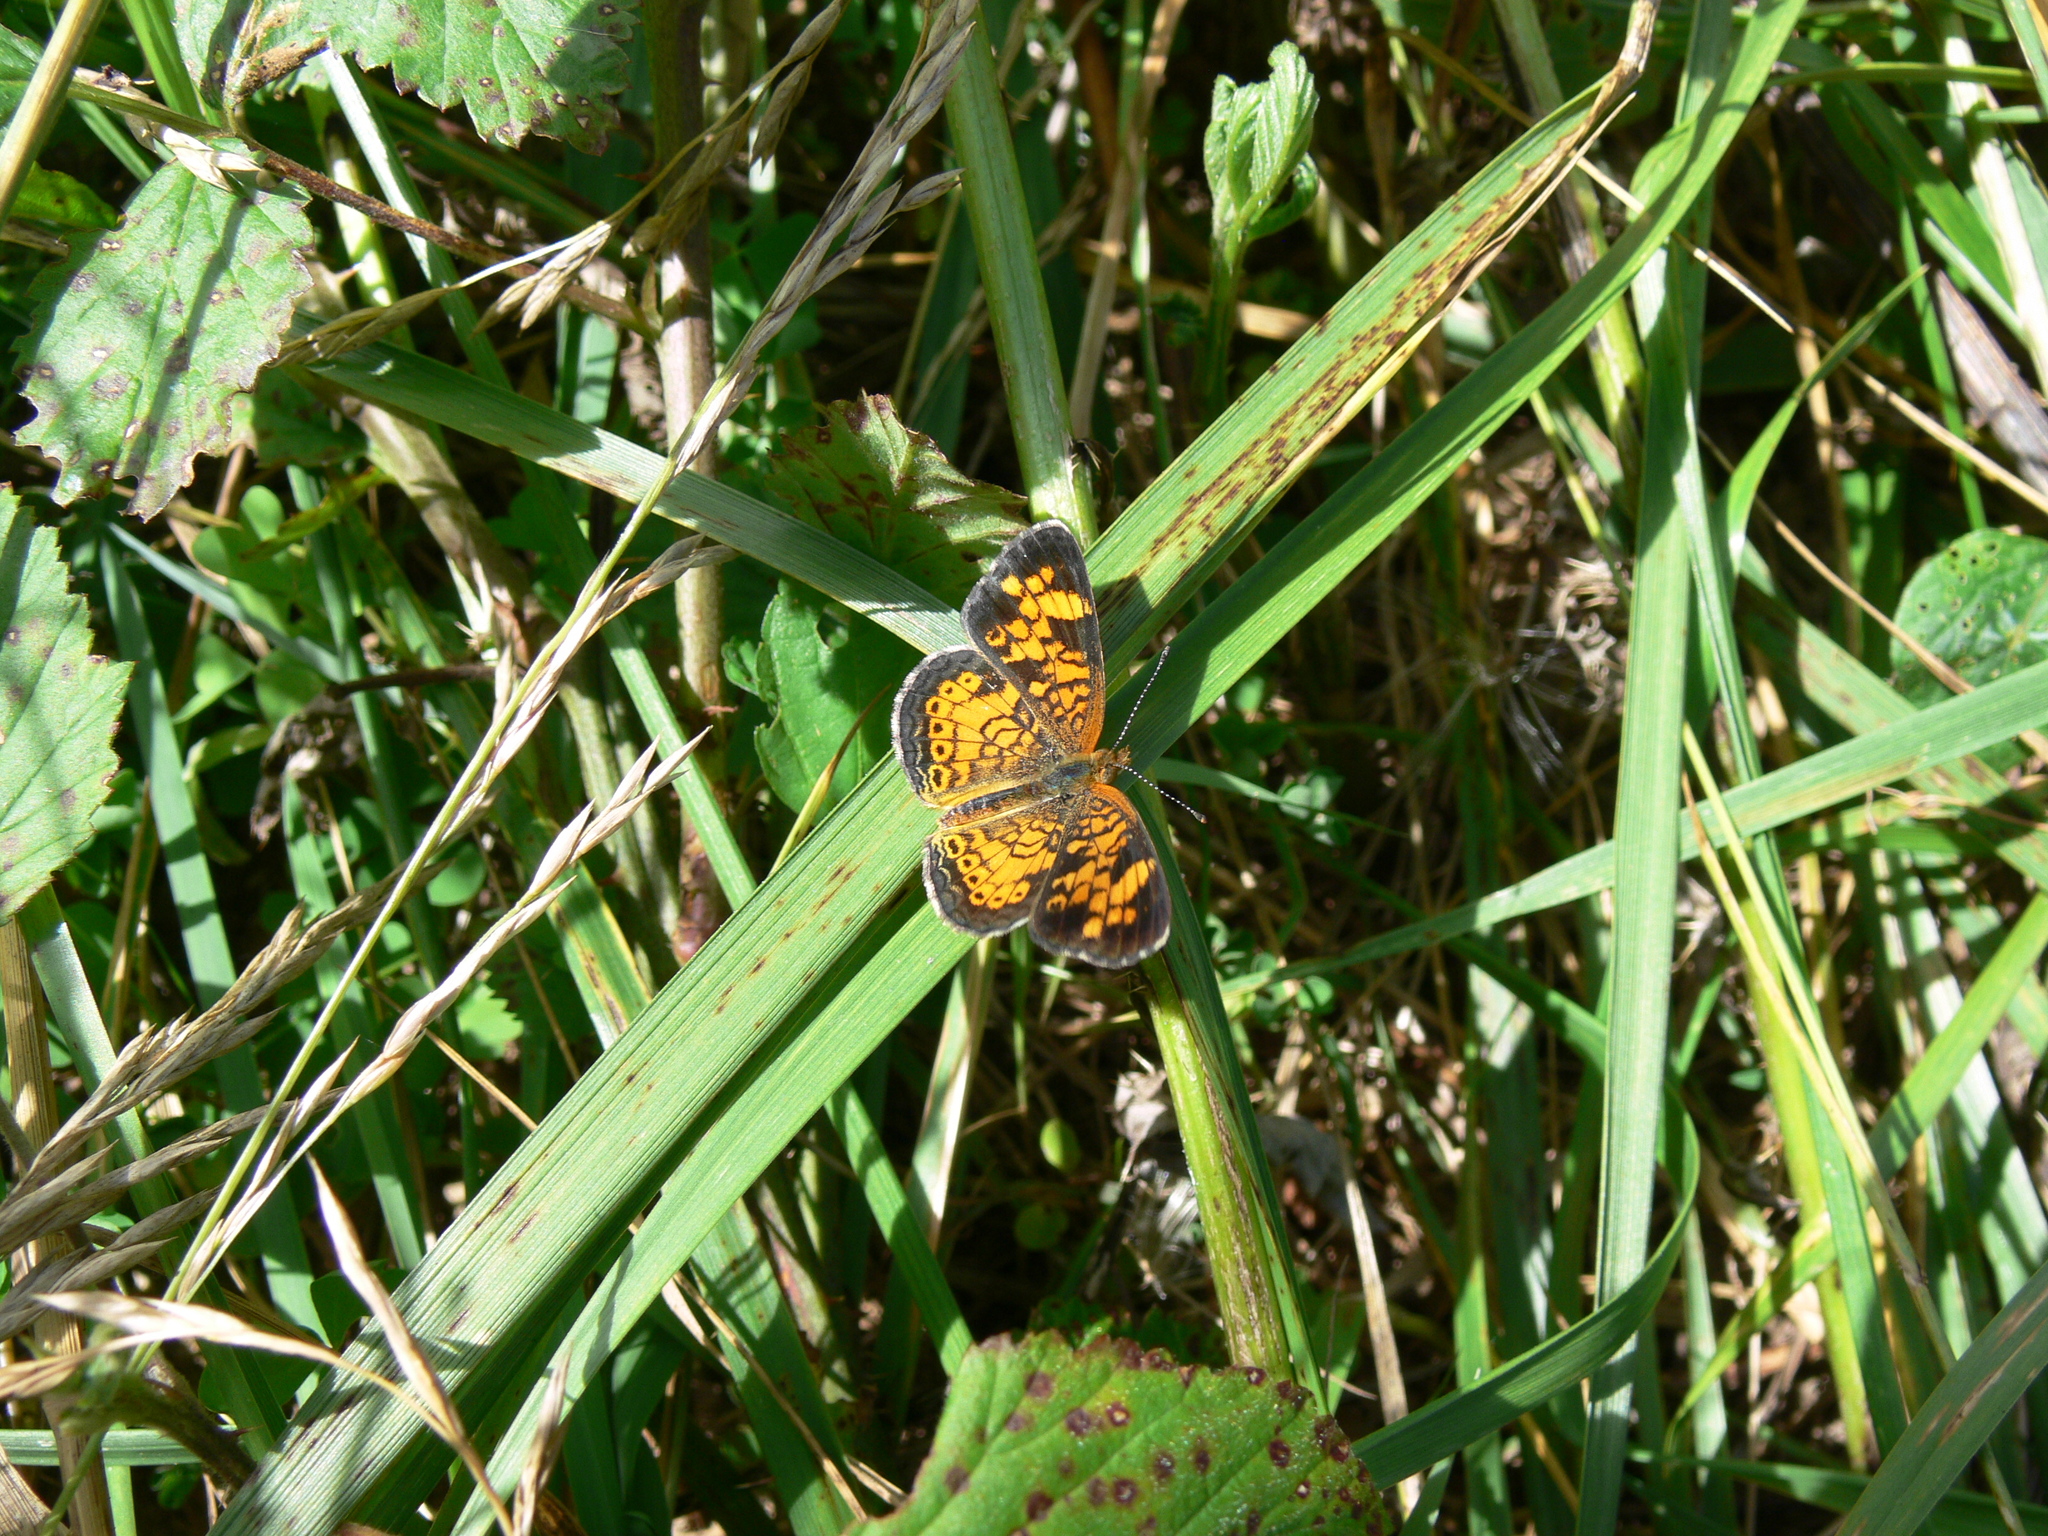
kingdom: Animalia
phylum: Arthropoda
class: Insecta
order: Lepidoptera
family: Nymphalidae
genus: Phyciodes
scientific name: Phyciodes tharos
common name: Pearl crescent
